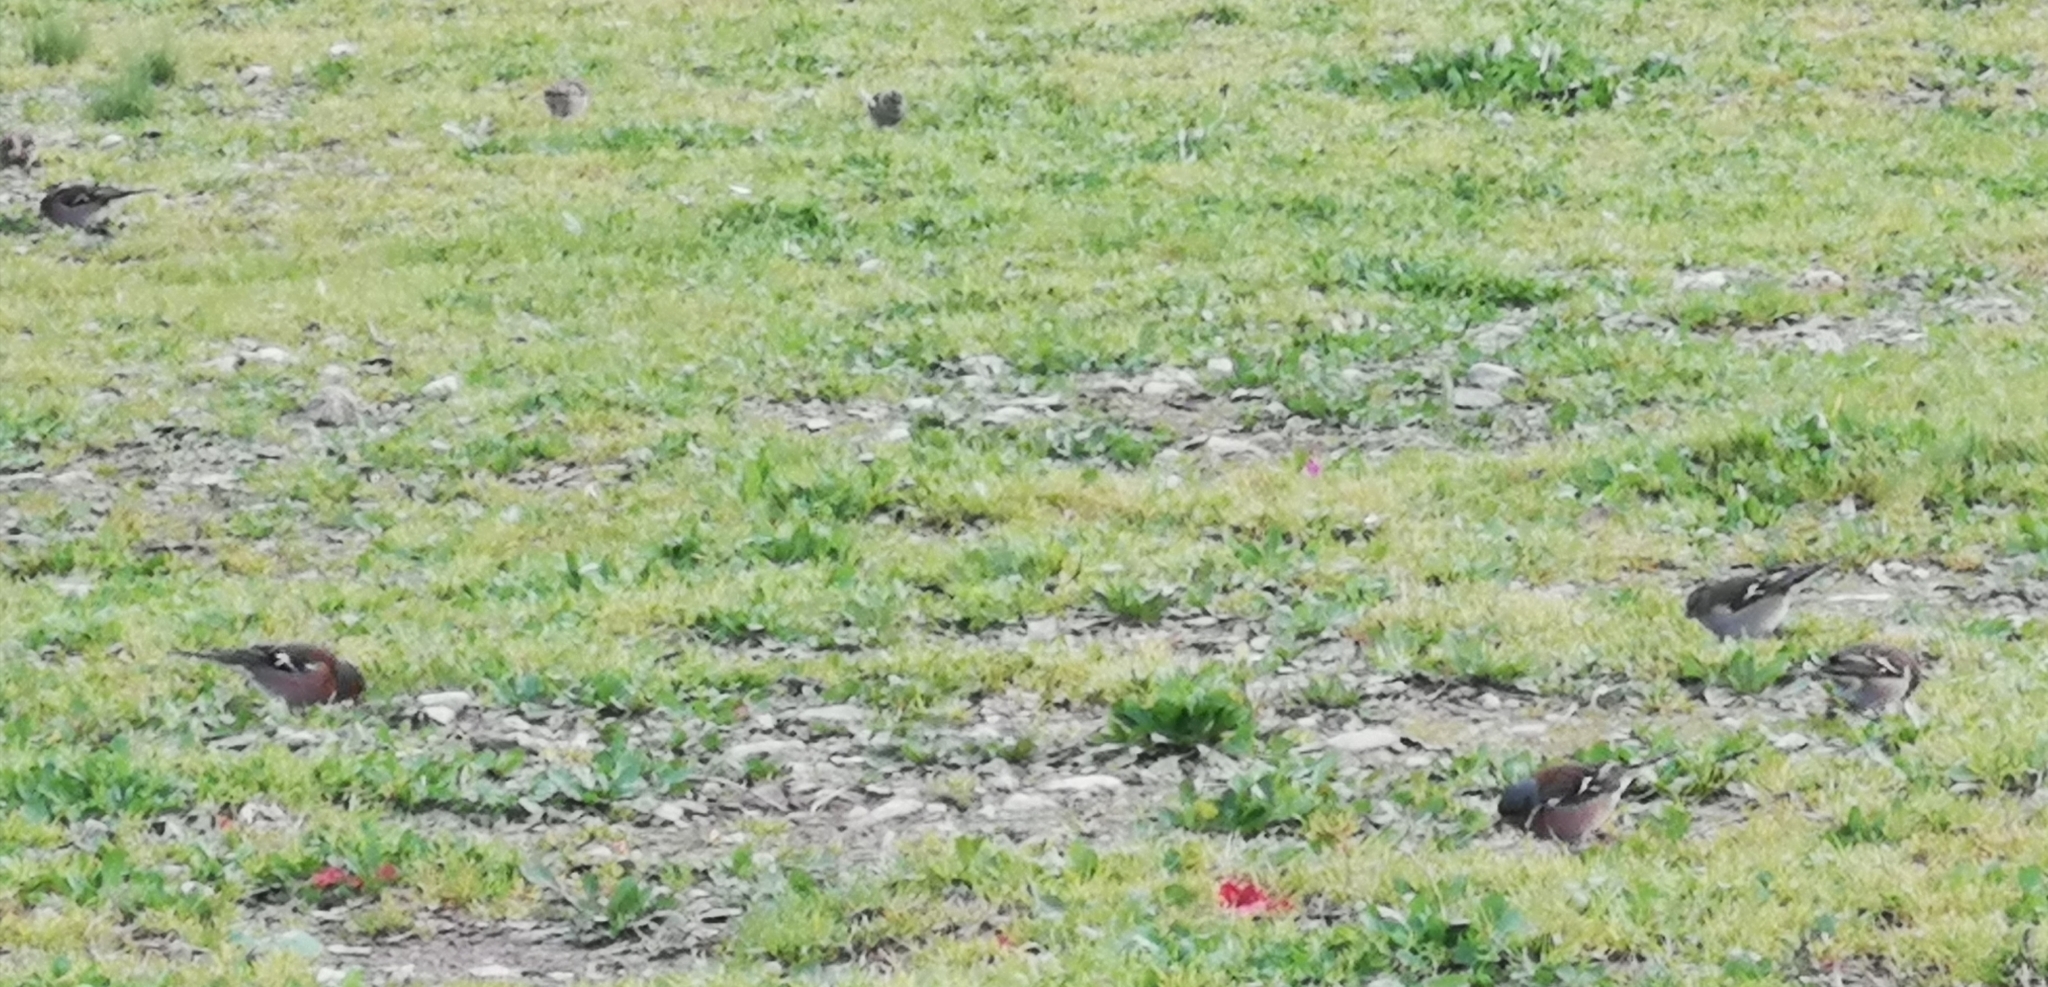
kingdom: Animalia
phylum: Chordata
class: Aves
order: Passeriformes
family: Fringillidae
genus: Fringilla
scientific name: Fringilla coelebs
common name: Common chaffinch
